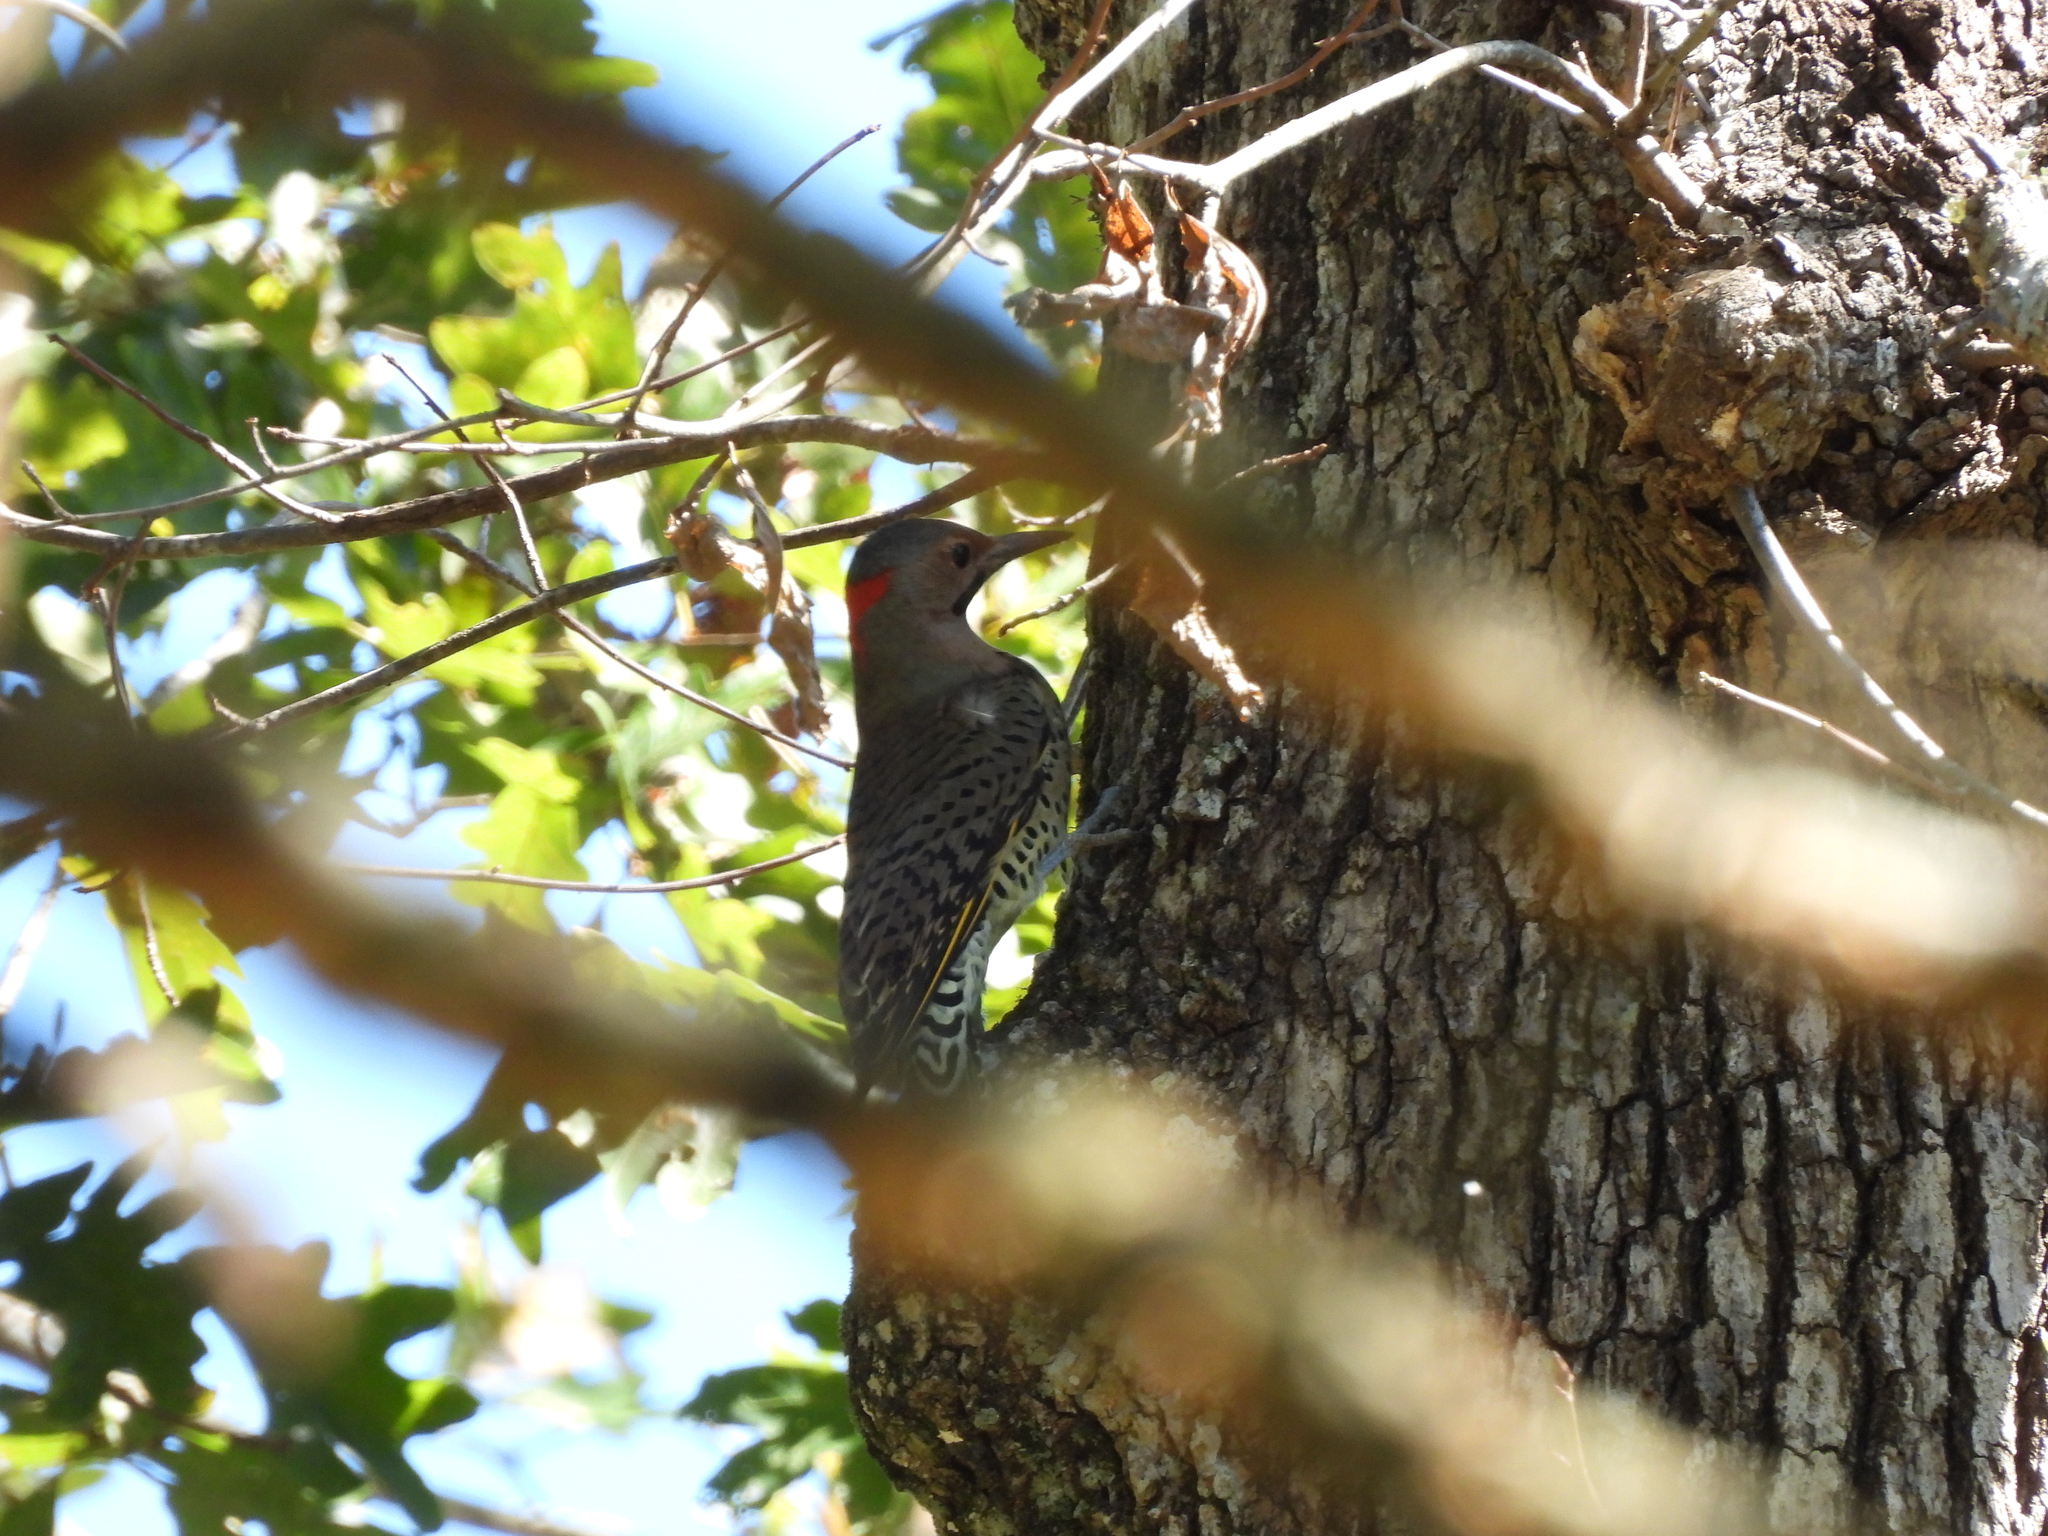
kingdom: Animalia
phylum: Chordata
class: Aves
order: Piciformes
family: Picidae
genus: Colaptes
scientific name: Colaptes auratus
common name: Northern flicker
